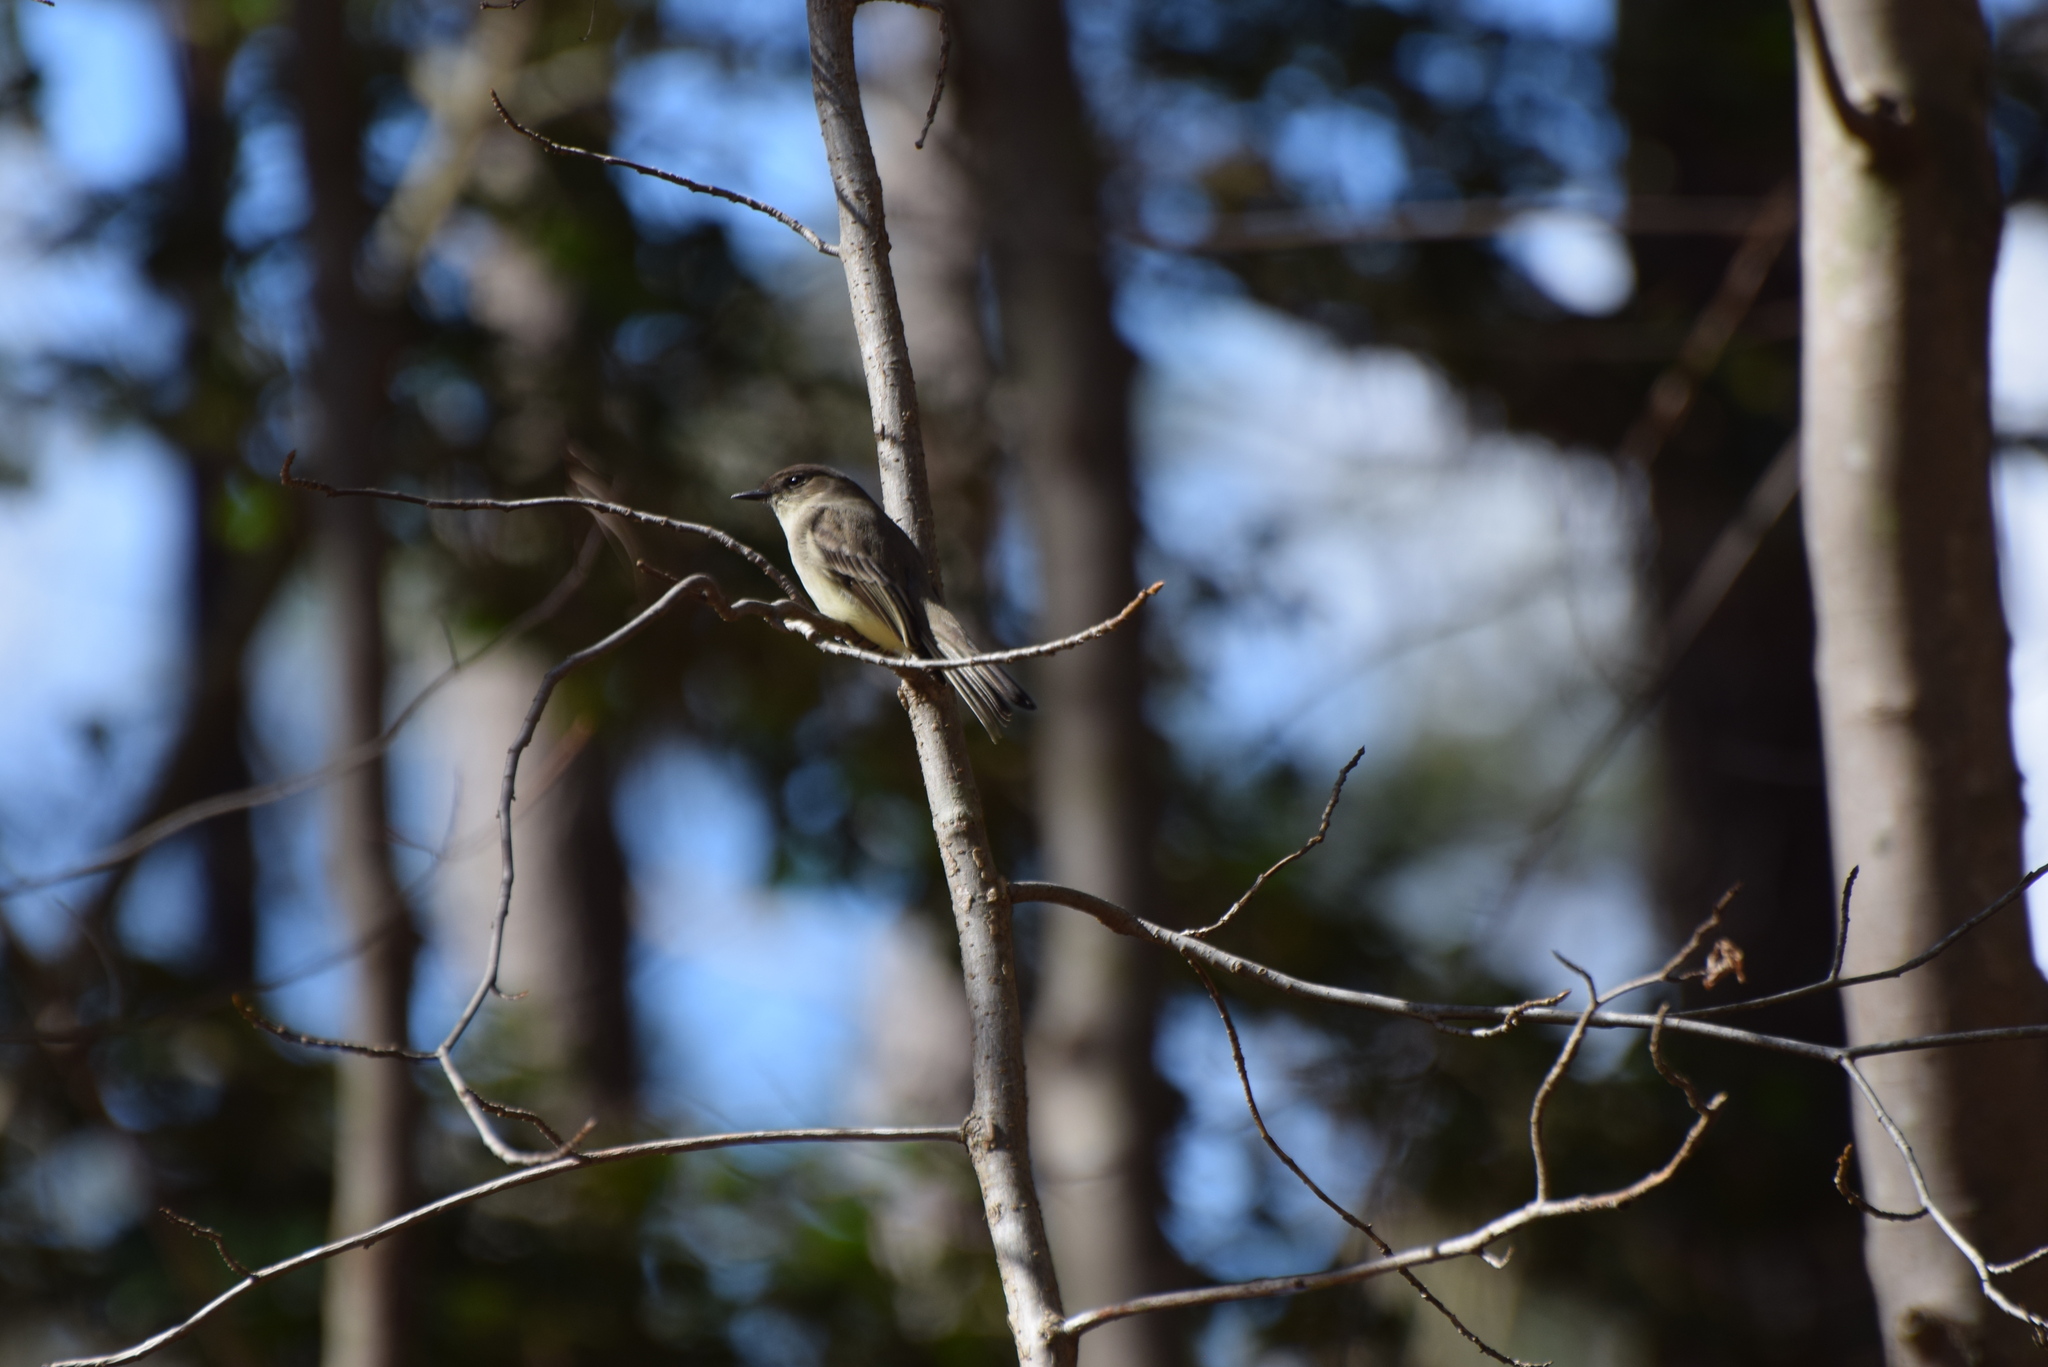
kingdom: Animalia
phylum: Chordata
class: Aves
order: Passeriformes
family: Tyrannidae
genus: Sayornis
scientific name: Sayornis phoebe
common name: Eastern phoebe
